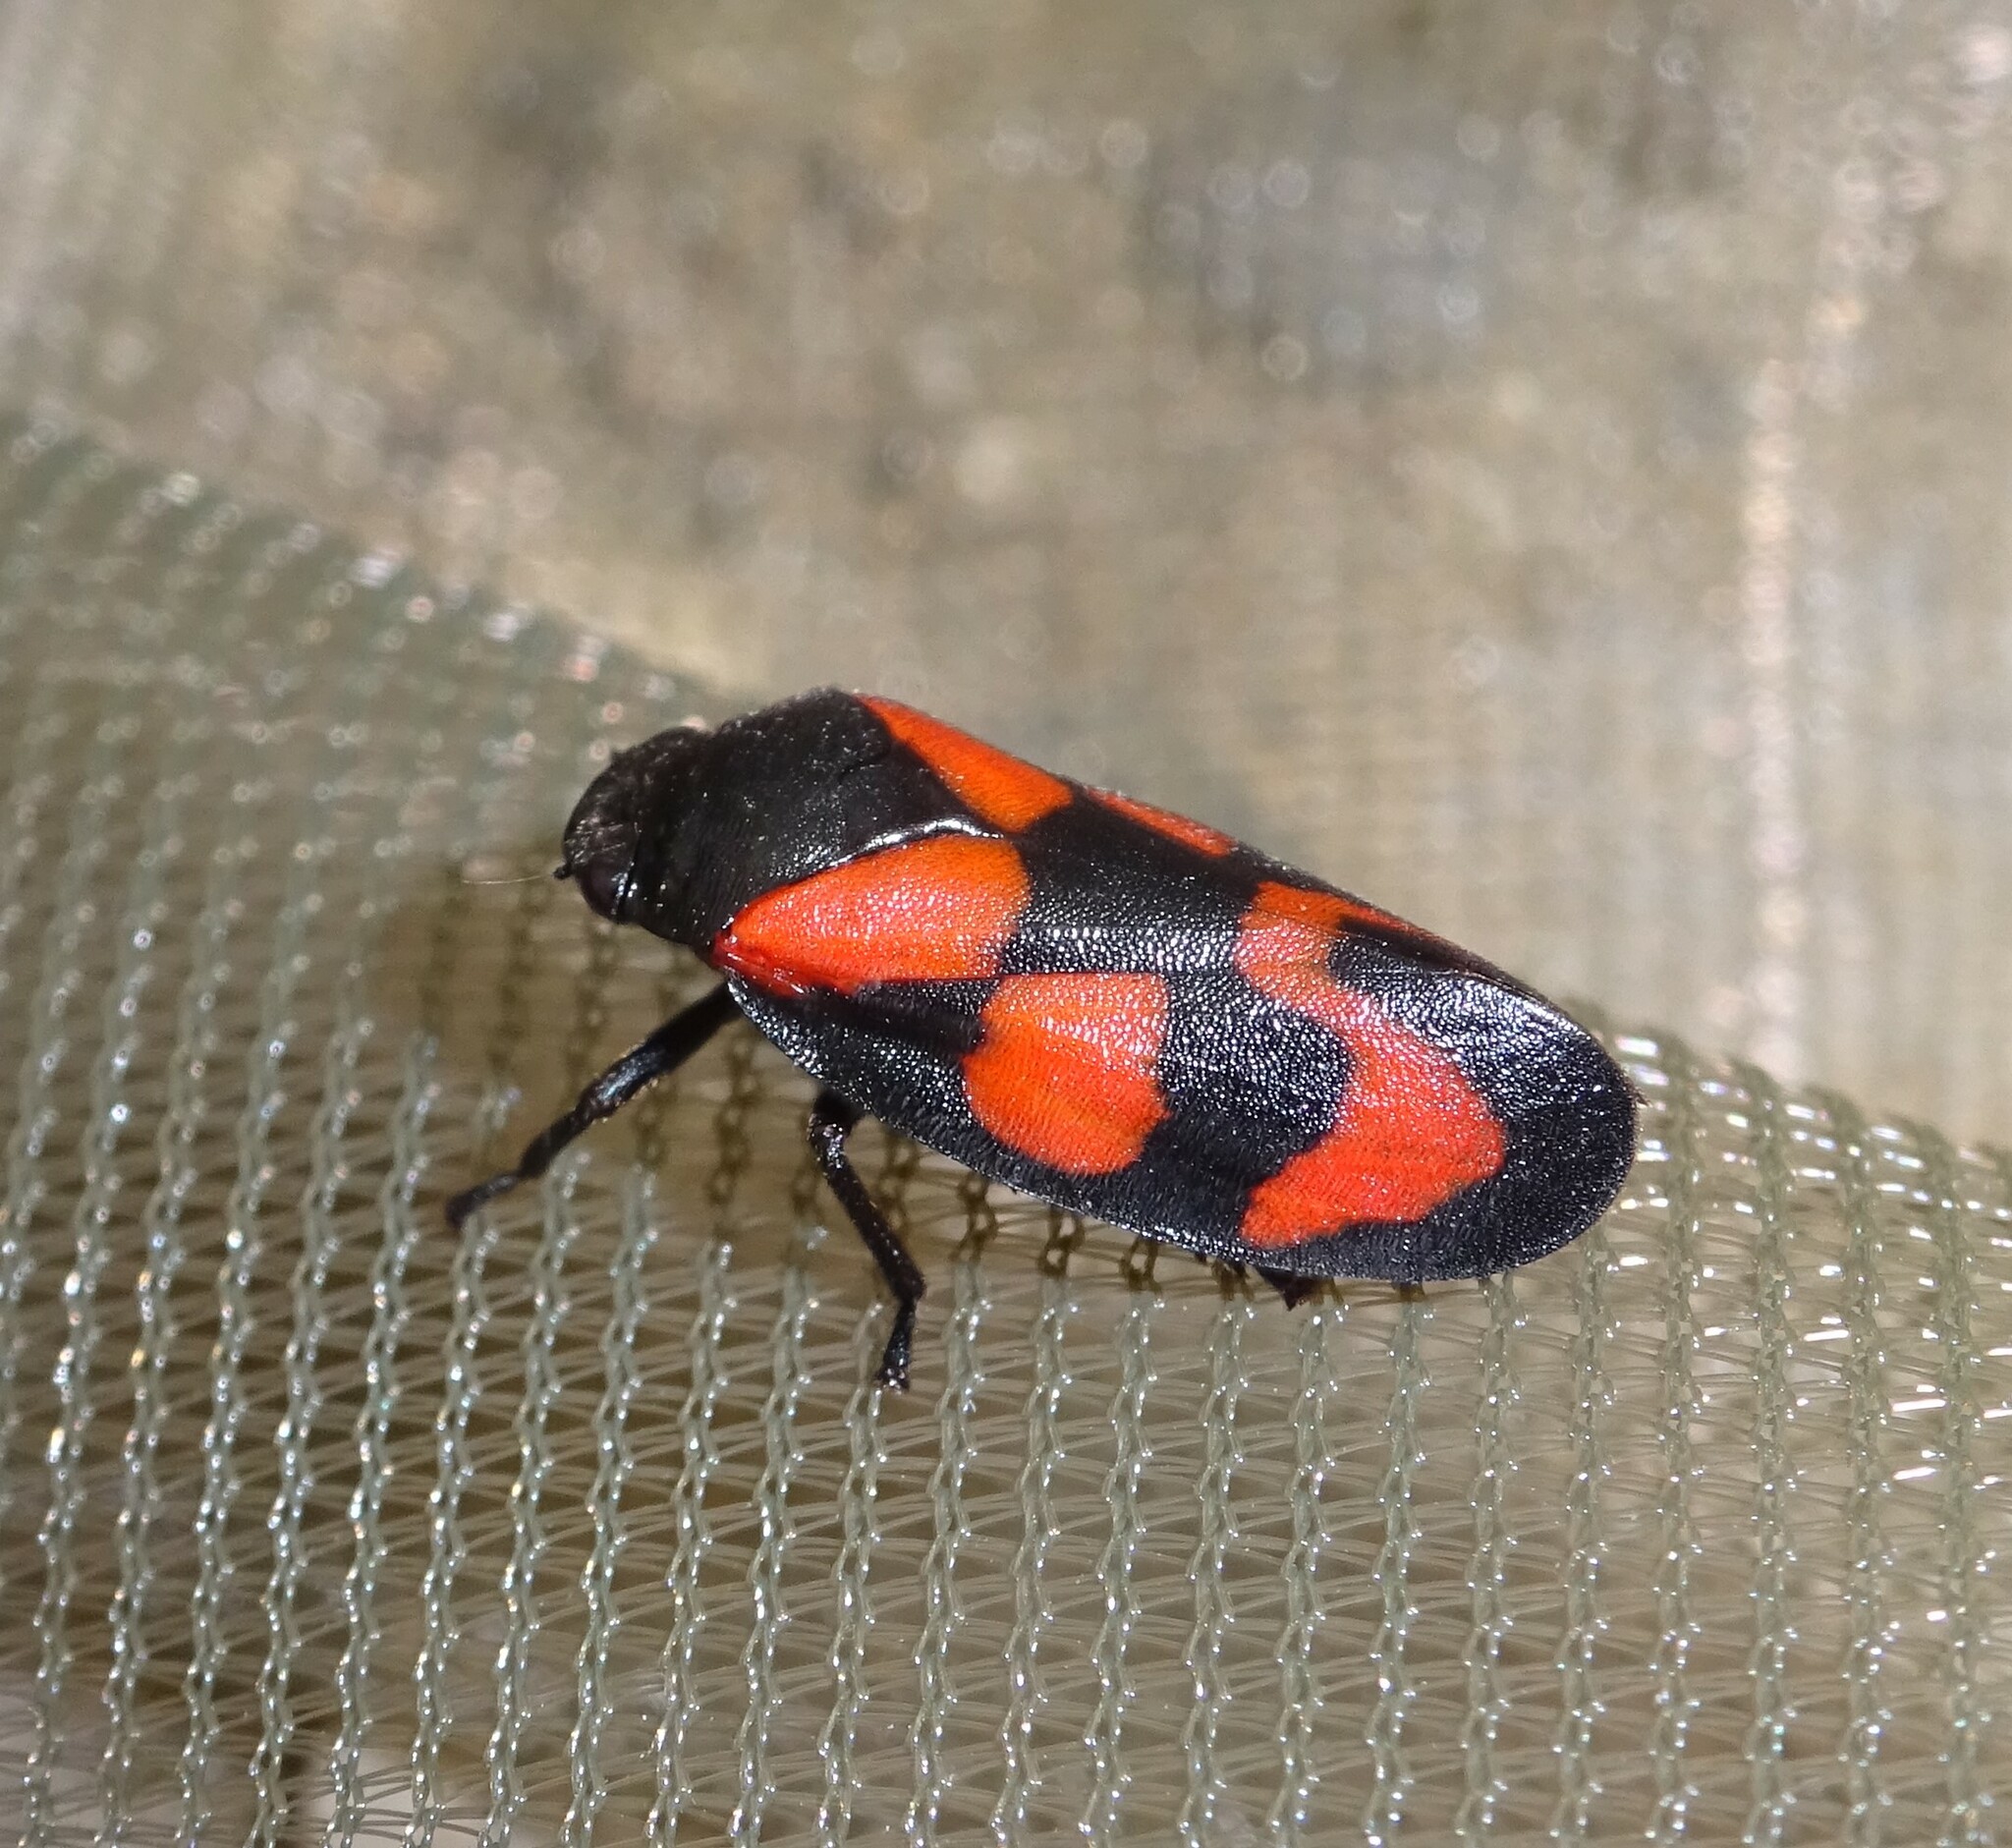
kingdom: Animalia
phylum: Arthropoda
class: Insecta
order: Hemiptera
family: Cercopidae
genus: Cercopis
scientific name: Cercopis vulnerata
